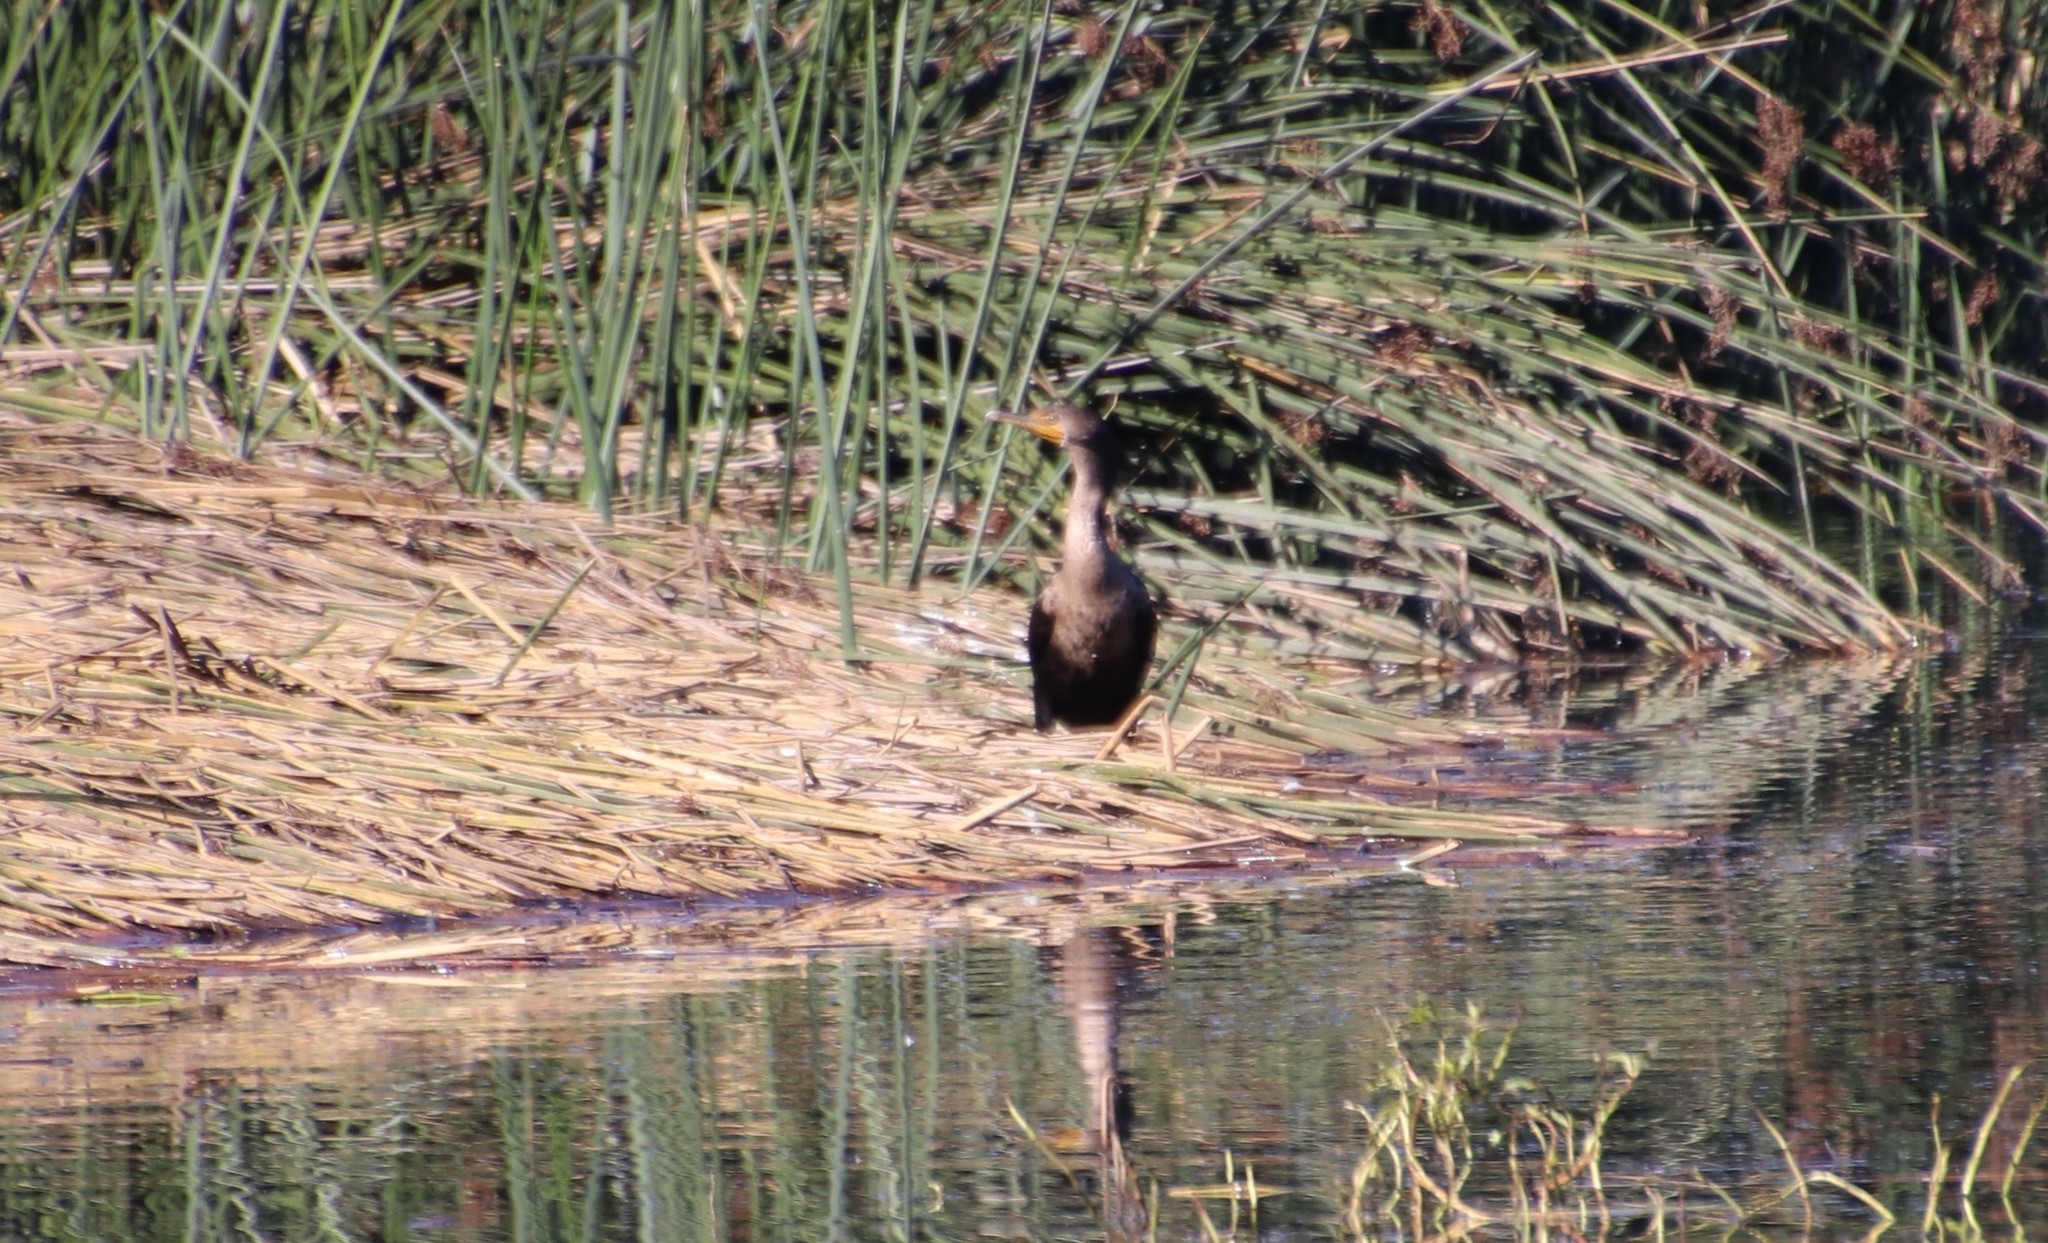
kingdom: Animalia
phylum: Chordata
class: Aves
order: Suliformes
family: Phalacrocoracidae
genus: Phalacrocorax
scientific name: Phalacrocorax auritus
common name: Double-crested cormorant
